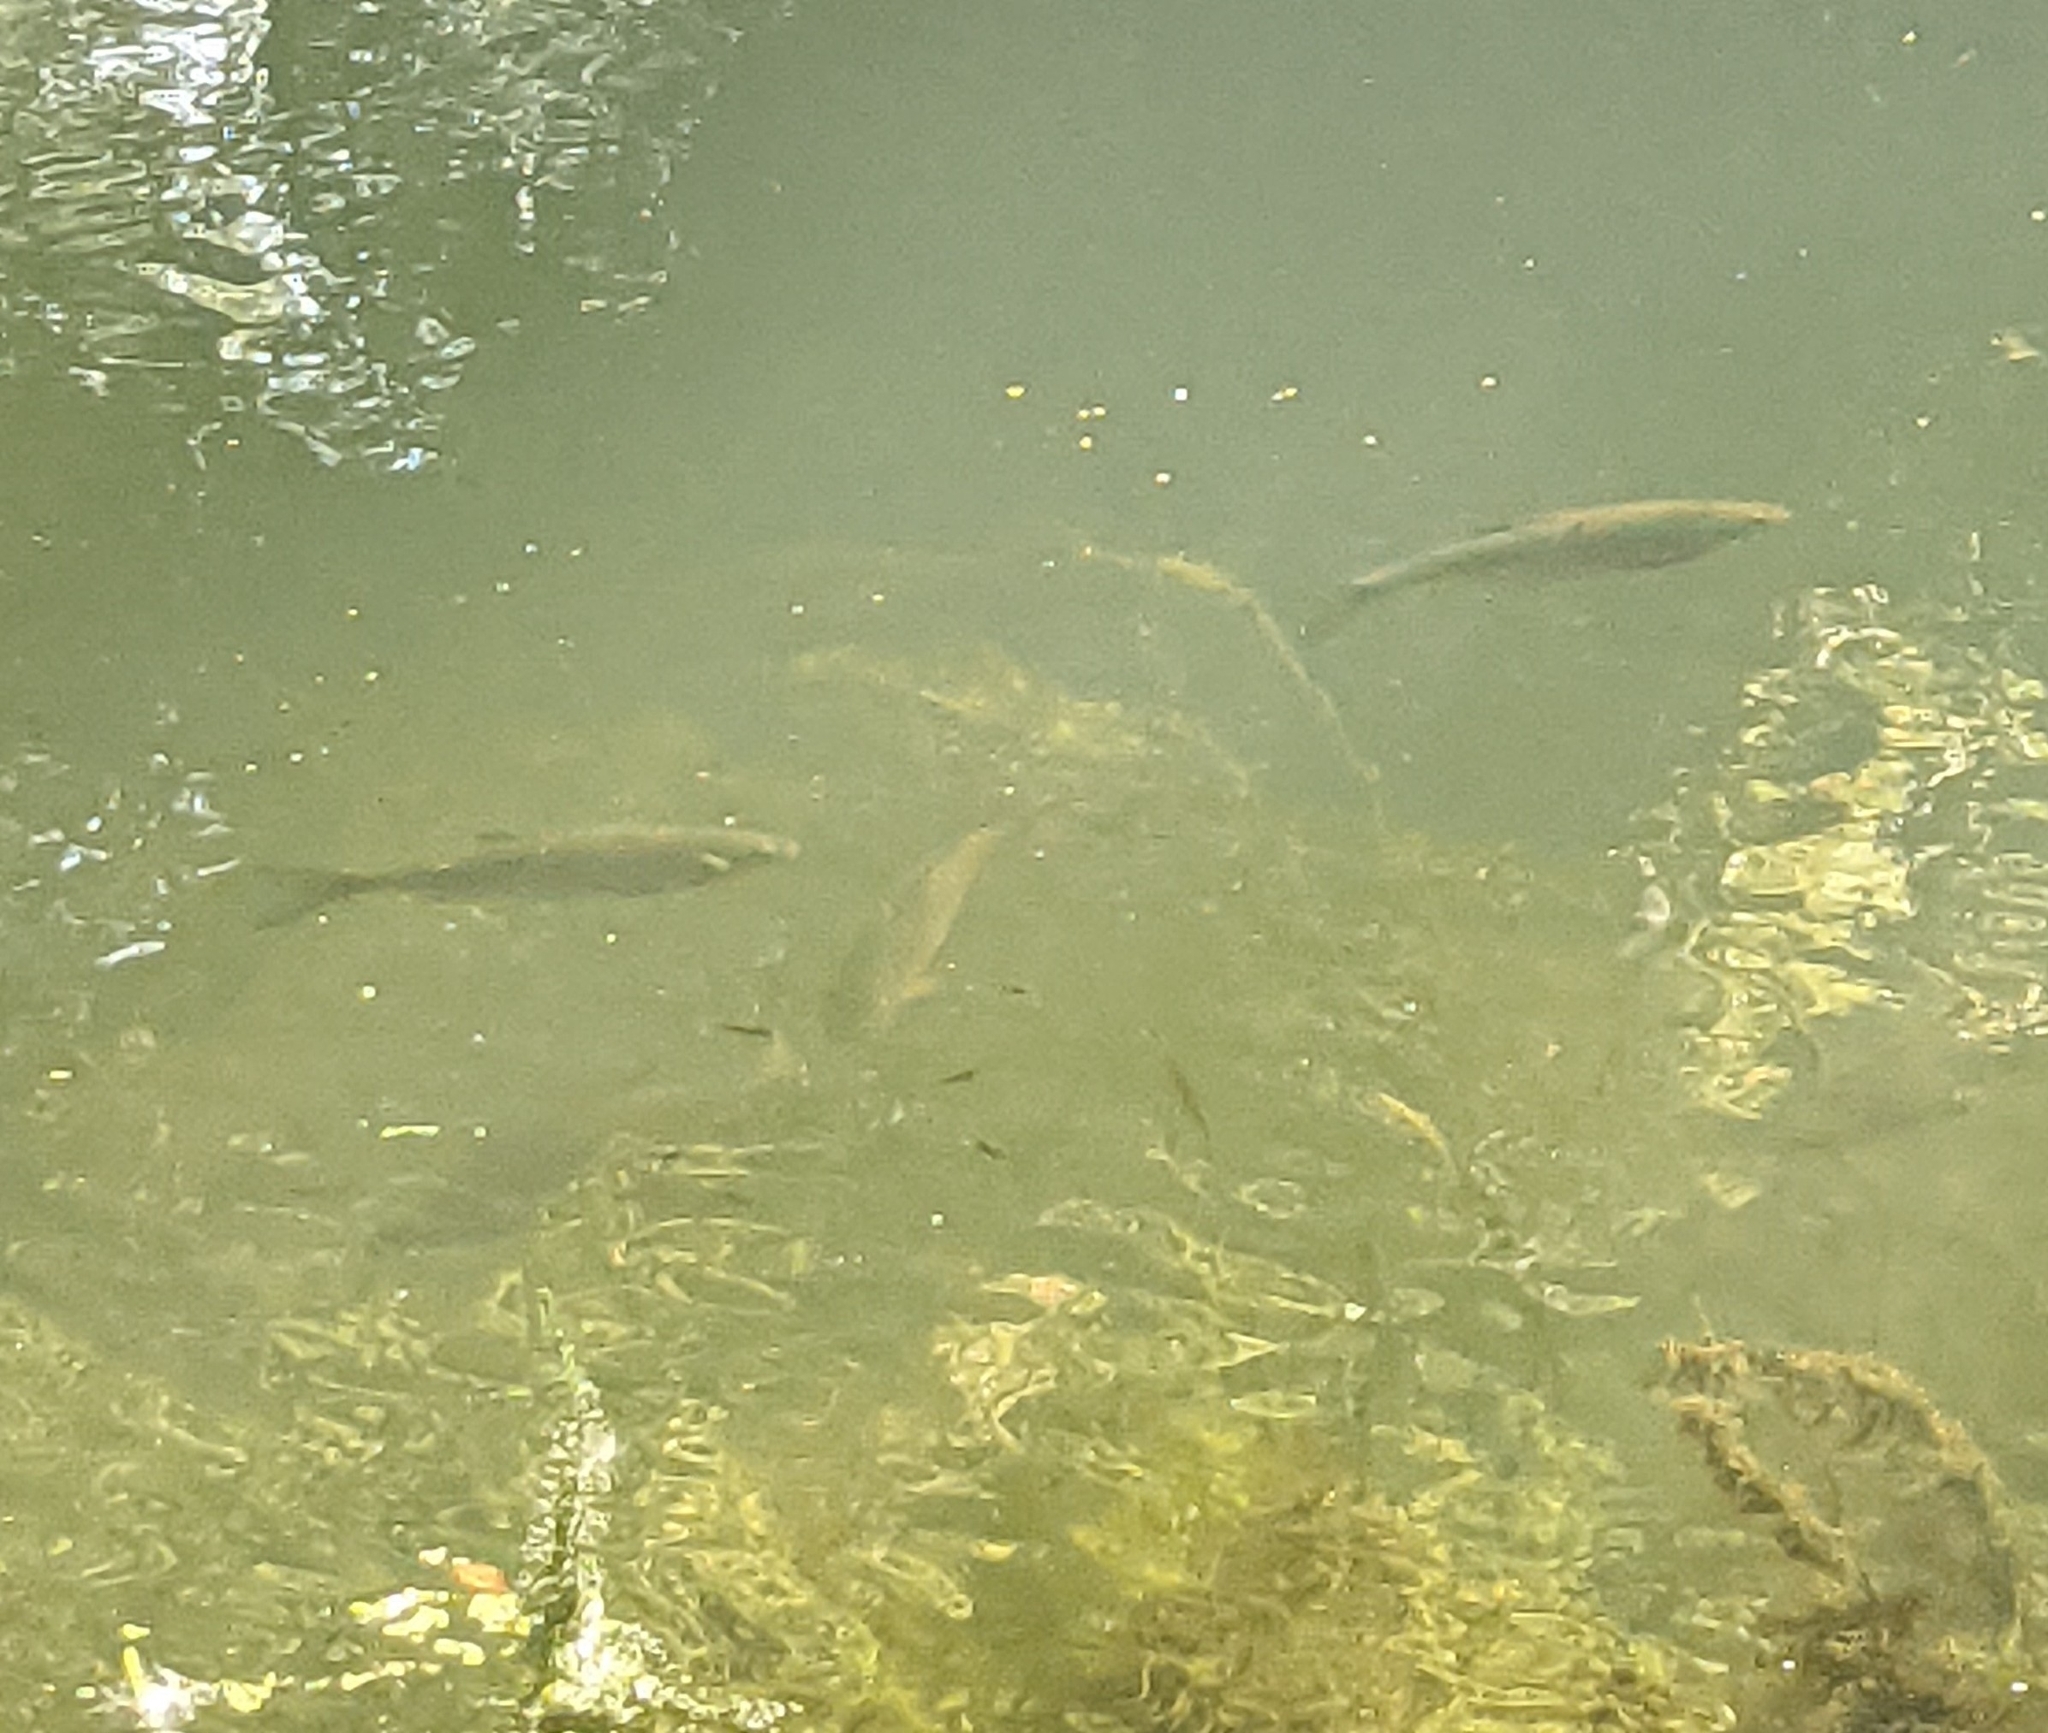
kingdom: Animalia
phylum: Chordata
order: Cypriniformes
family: Cyprinidae
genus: Squalius
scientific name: Squalius cephalus
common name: Chub
